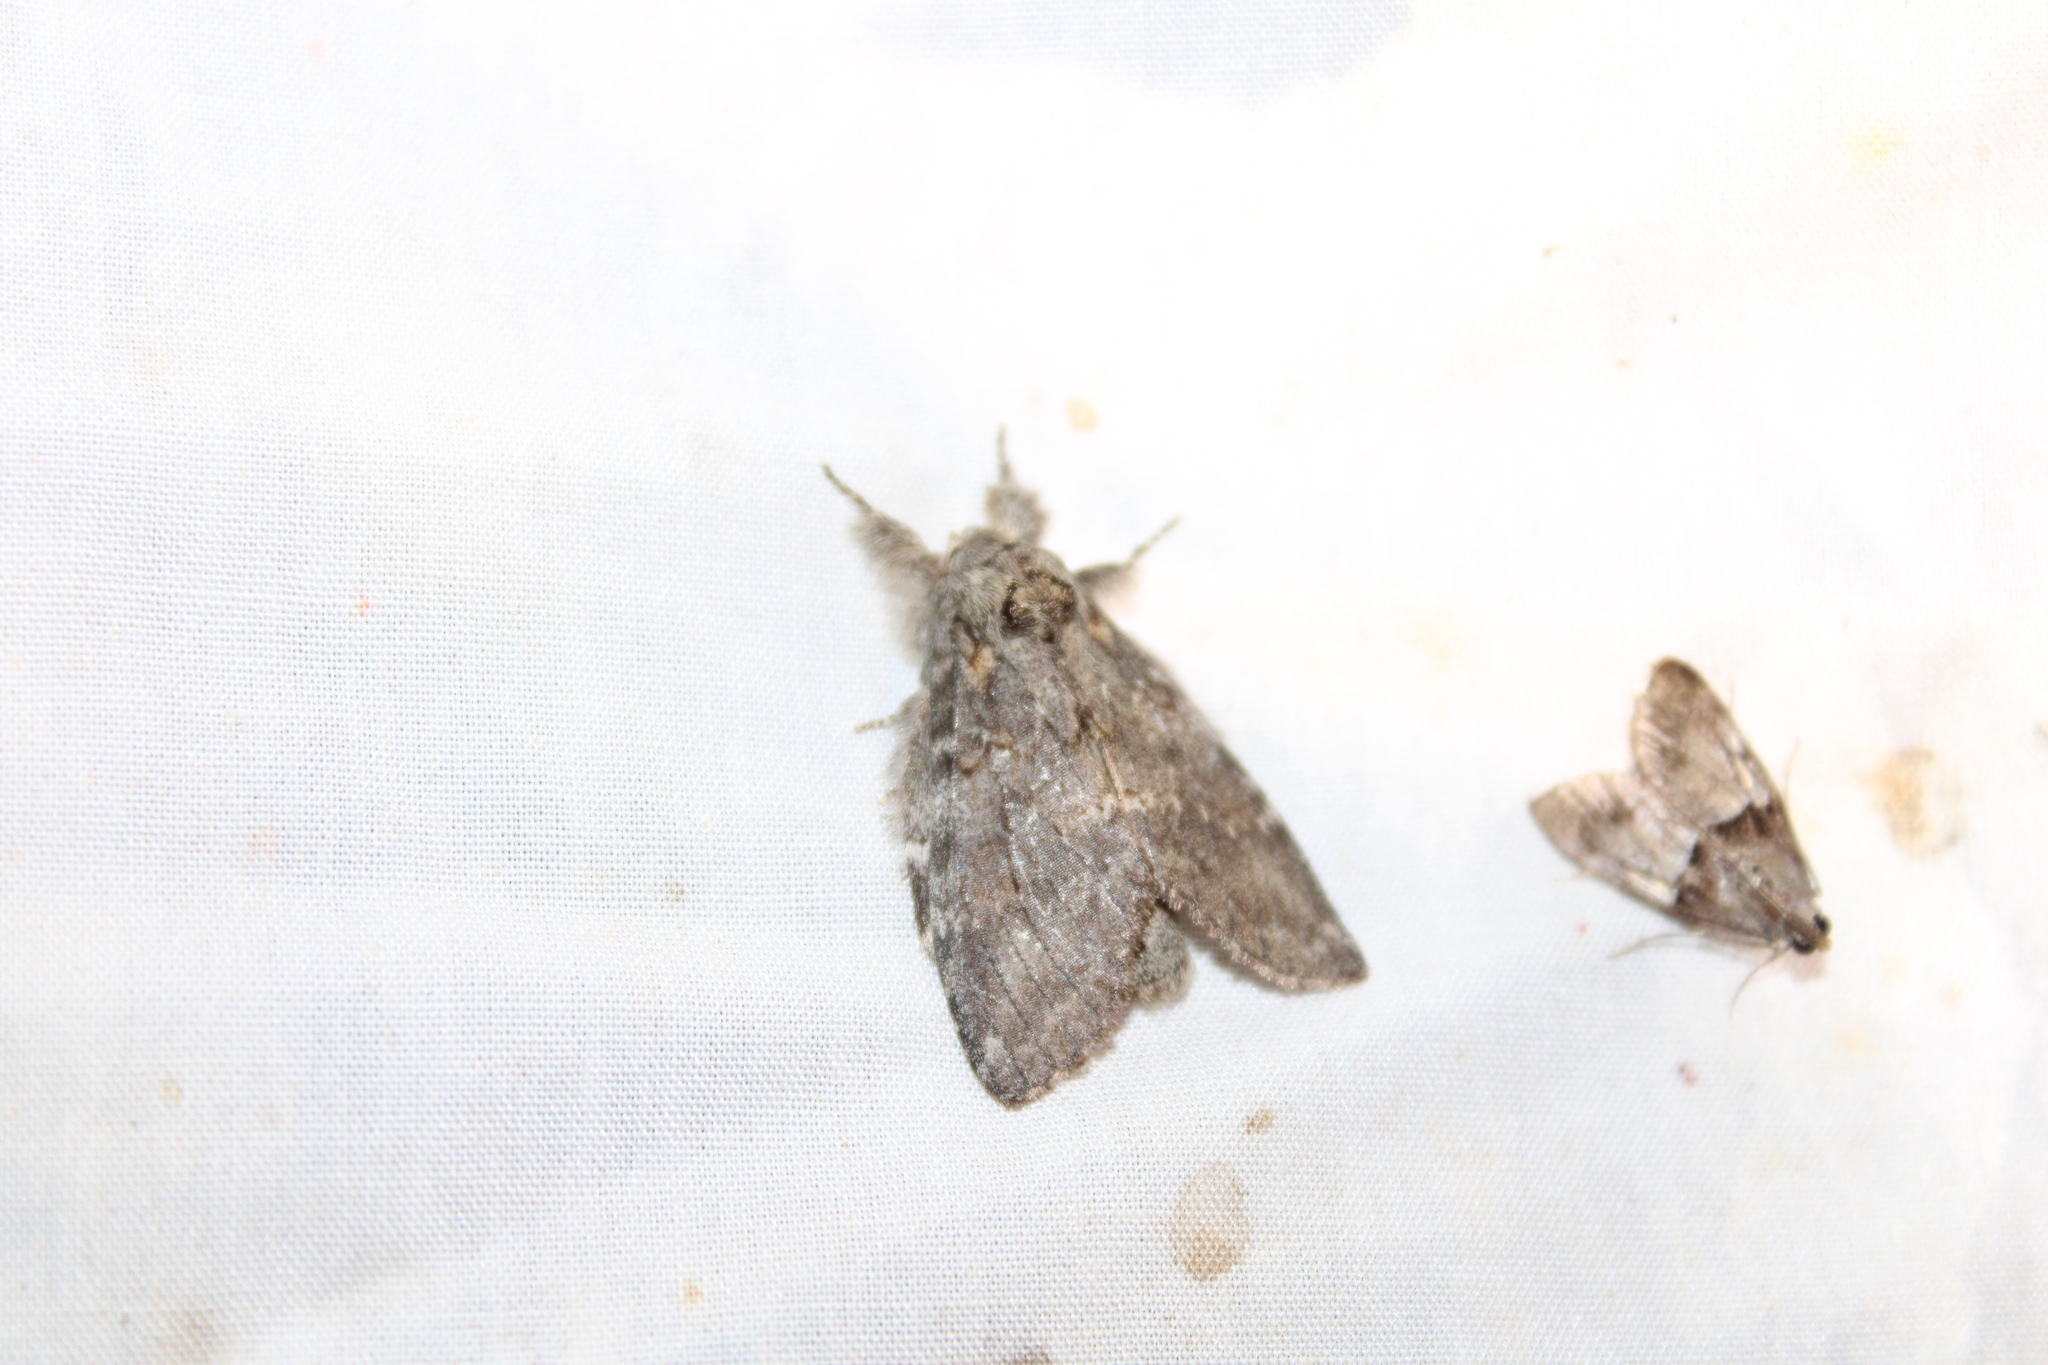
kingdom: Animalia
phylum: Arthropoda
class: Insecta
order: Lepidoptera
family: Notodontidae
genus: Peridea
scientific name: Peridea angulosa
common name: Angulose prominent
